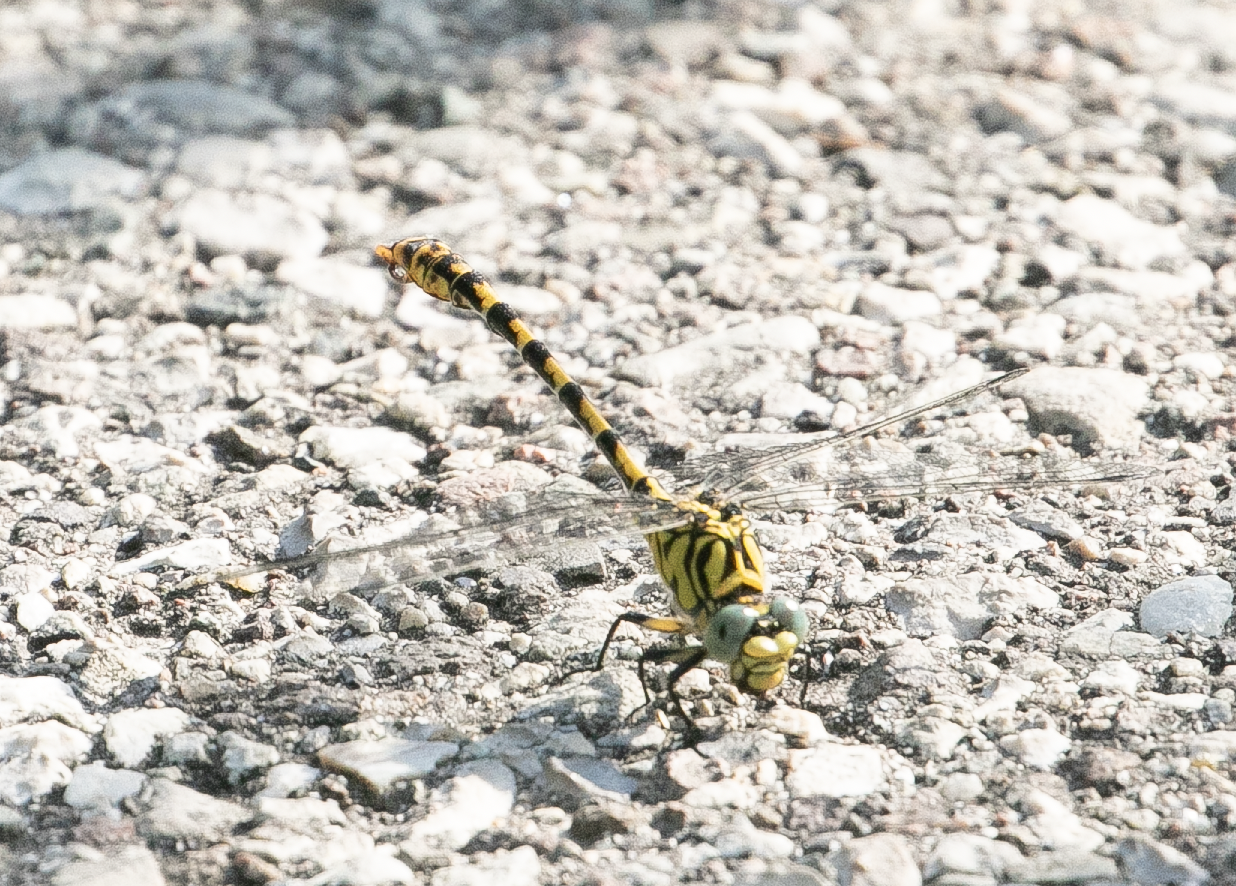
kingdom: Animalia
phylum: Arthropoda
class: Insecta
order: Odonata
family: Gomphidae
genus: Onychogomphus
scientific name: Onychogomphus forcipatus
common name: Small pincertail
